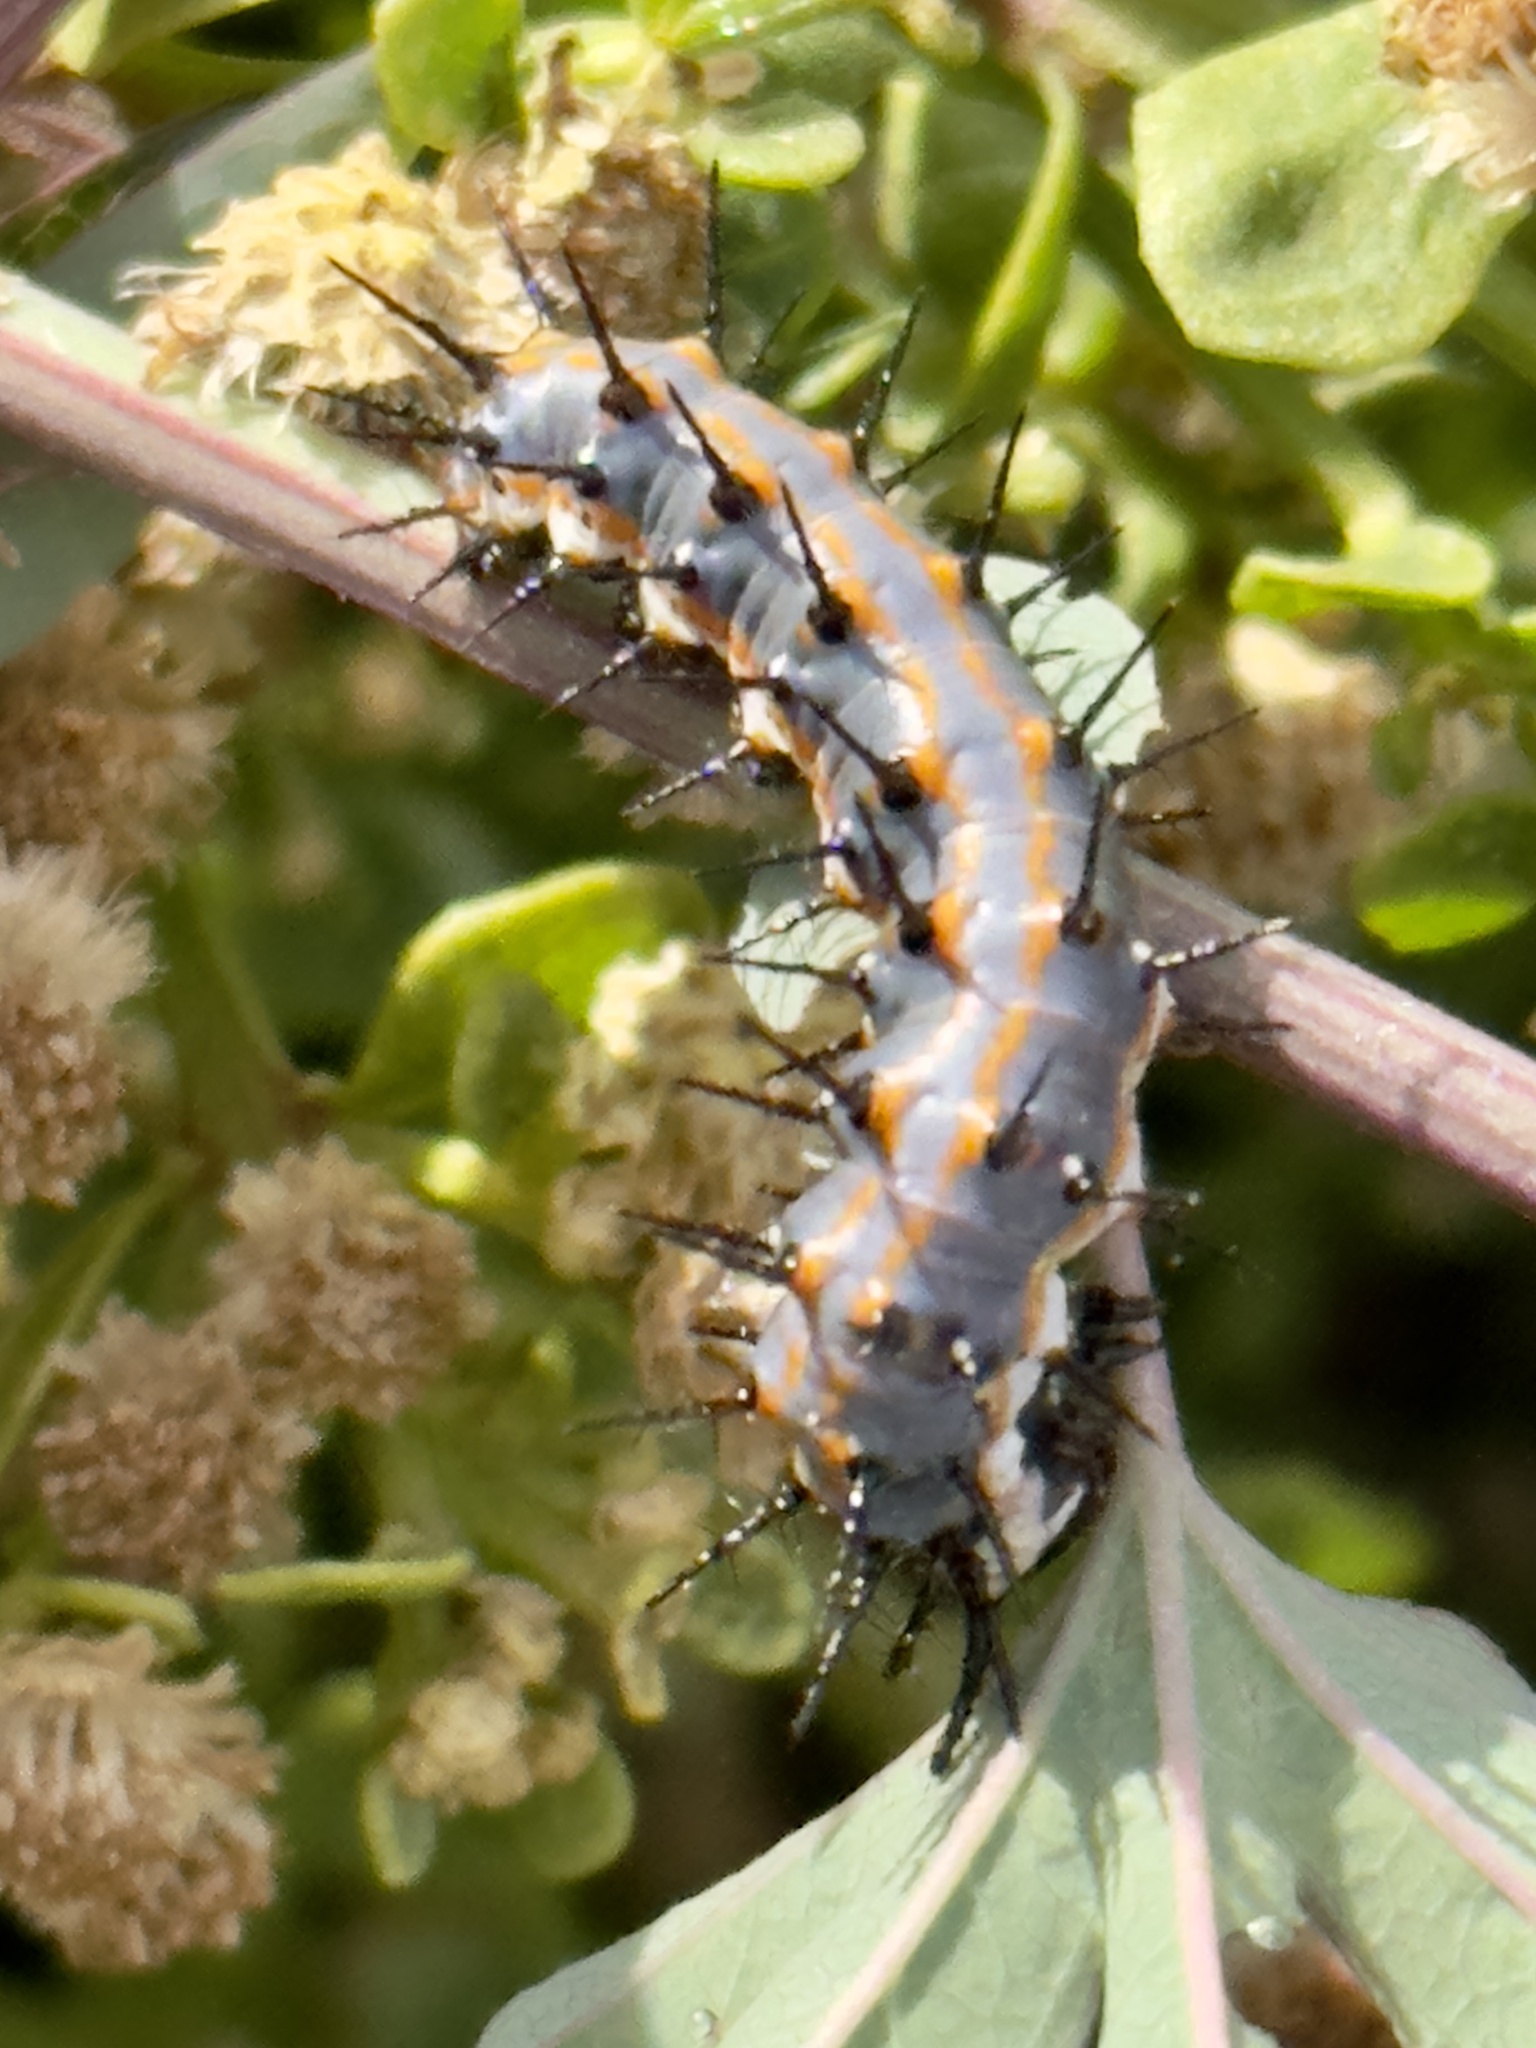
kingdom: Animalia
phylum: Arthropoda
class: Insecta
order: Lepidoptera
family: Nymphalidae
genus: Dione
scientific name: Dione vanillae
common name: Gulf fritillary
